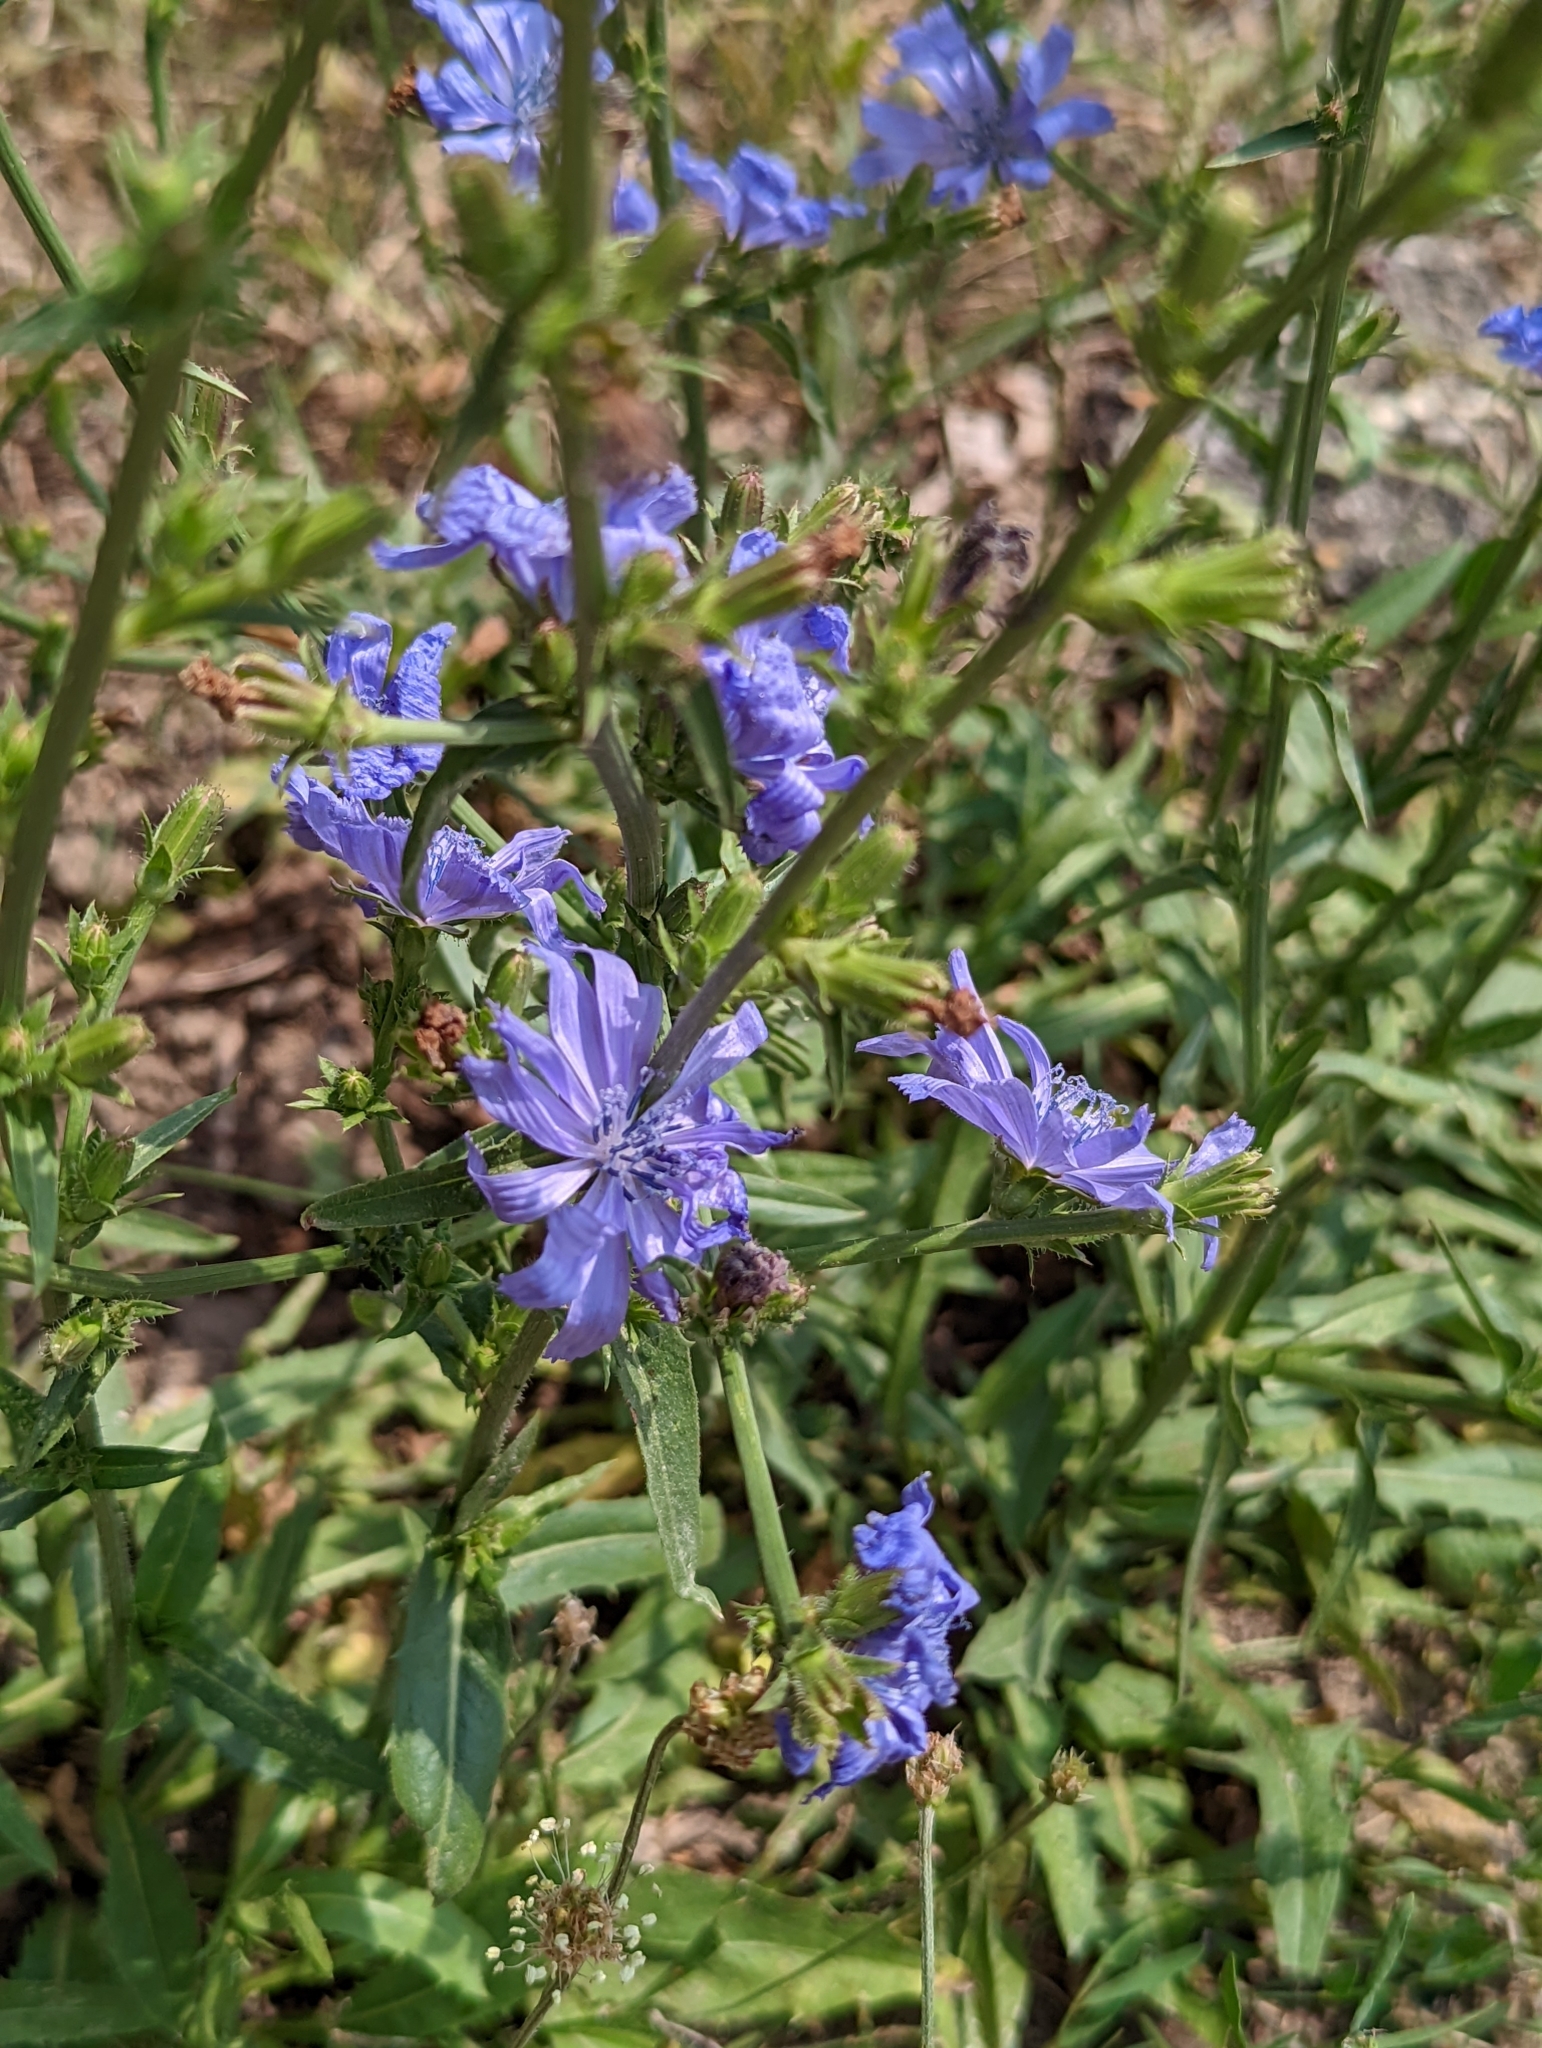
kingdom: Plantae
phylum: Tracheophyta
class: Magnoliopsida
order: Asterales
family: Asteraceae
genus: Cichorium
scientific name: Cichorium intybus
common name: Chicory
